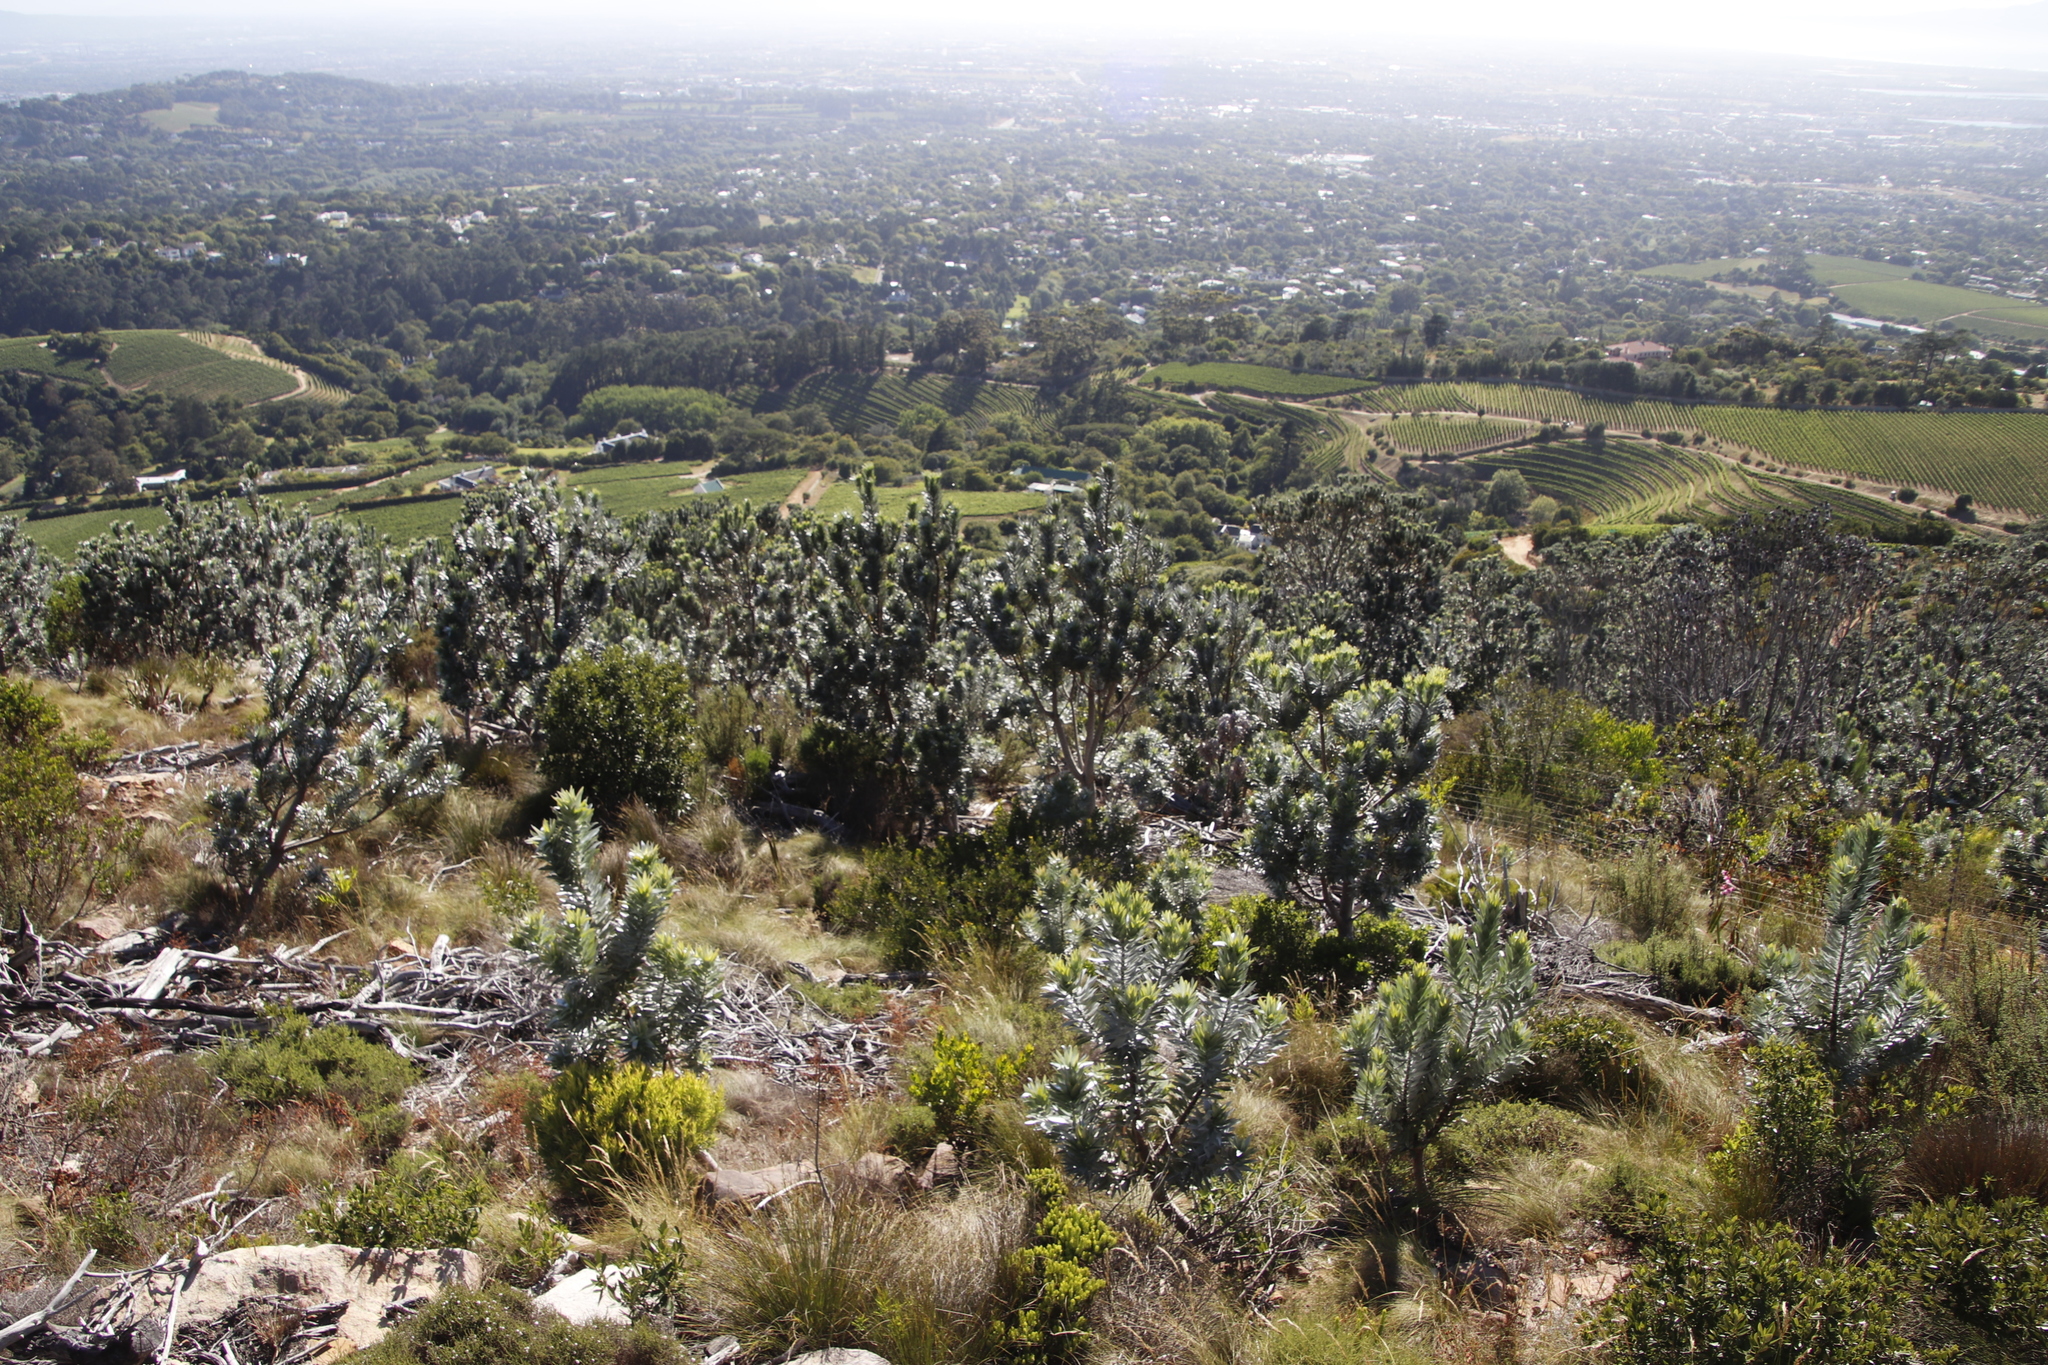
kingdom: Plantae
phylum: Tracheophyta
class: Magnoliopsida
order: Proteales
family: Proteaceae
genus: Leucadendron
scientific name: Leucadendron argenteum
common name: Cape silver tree
